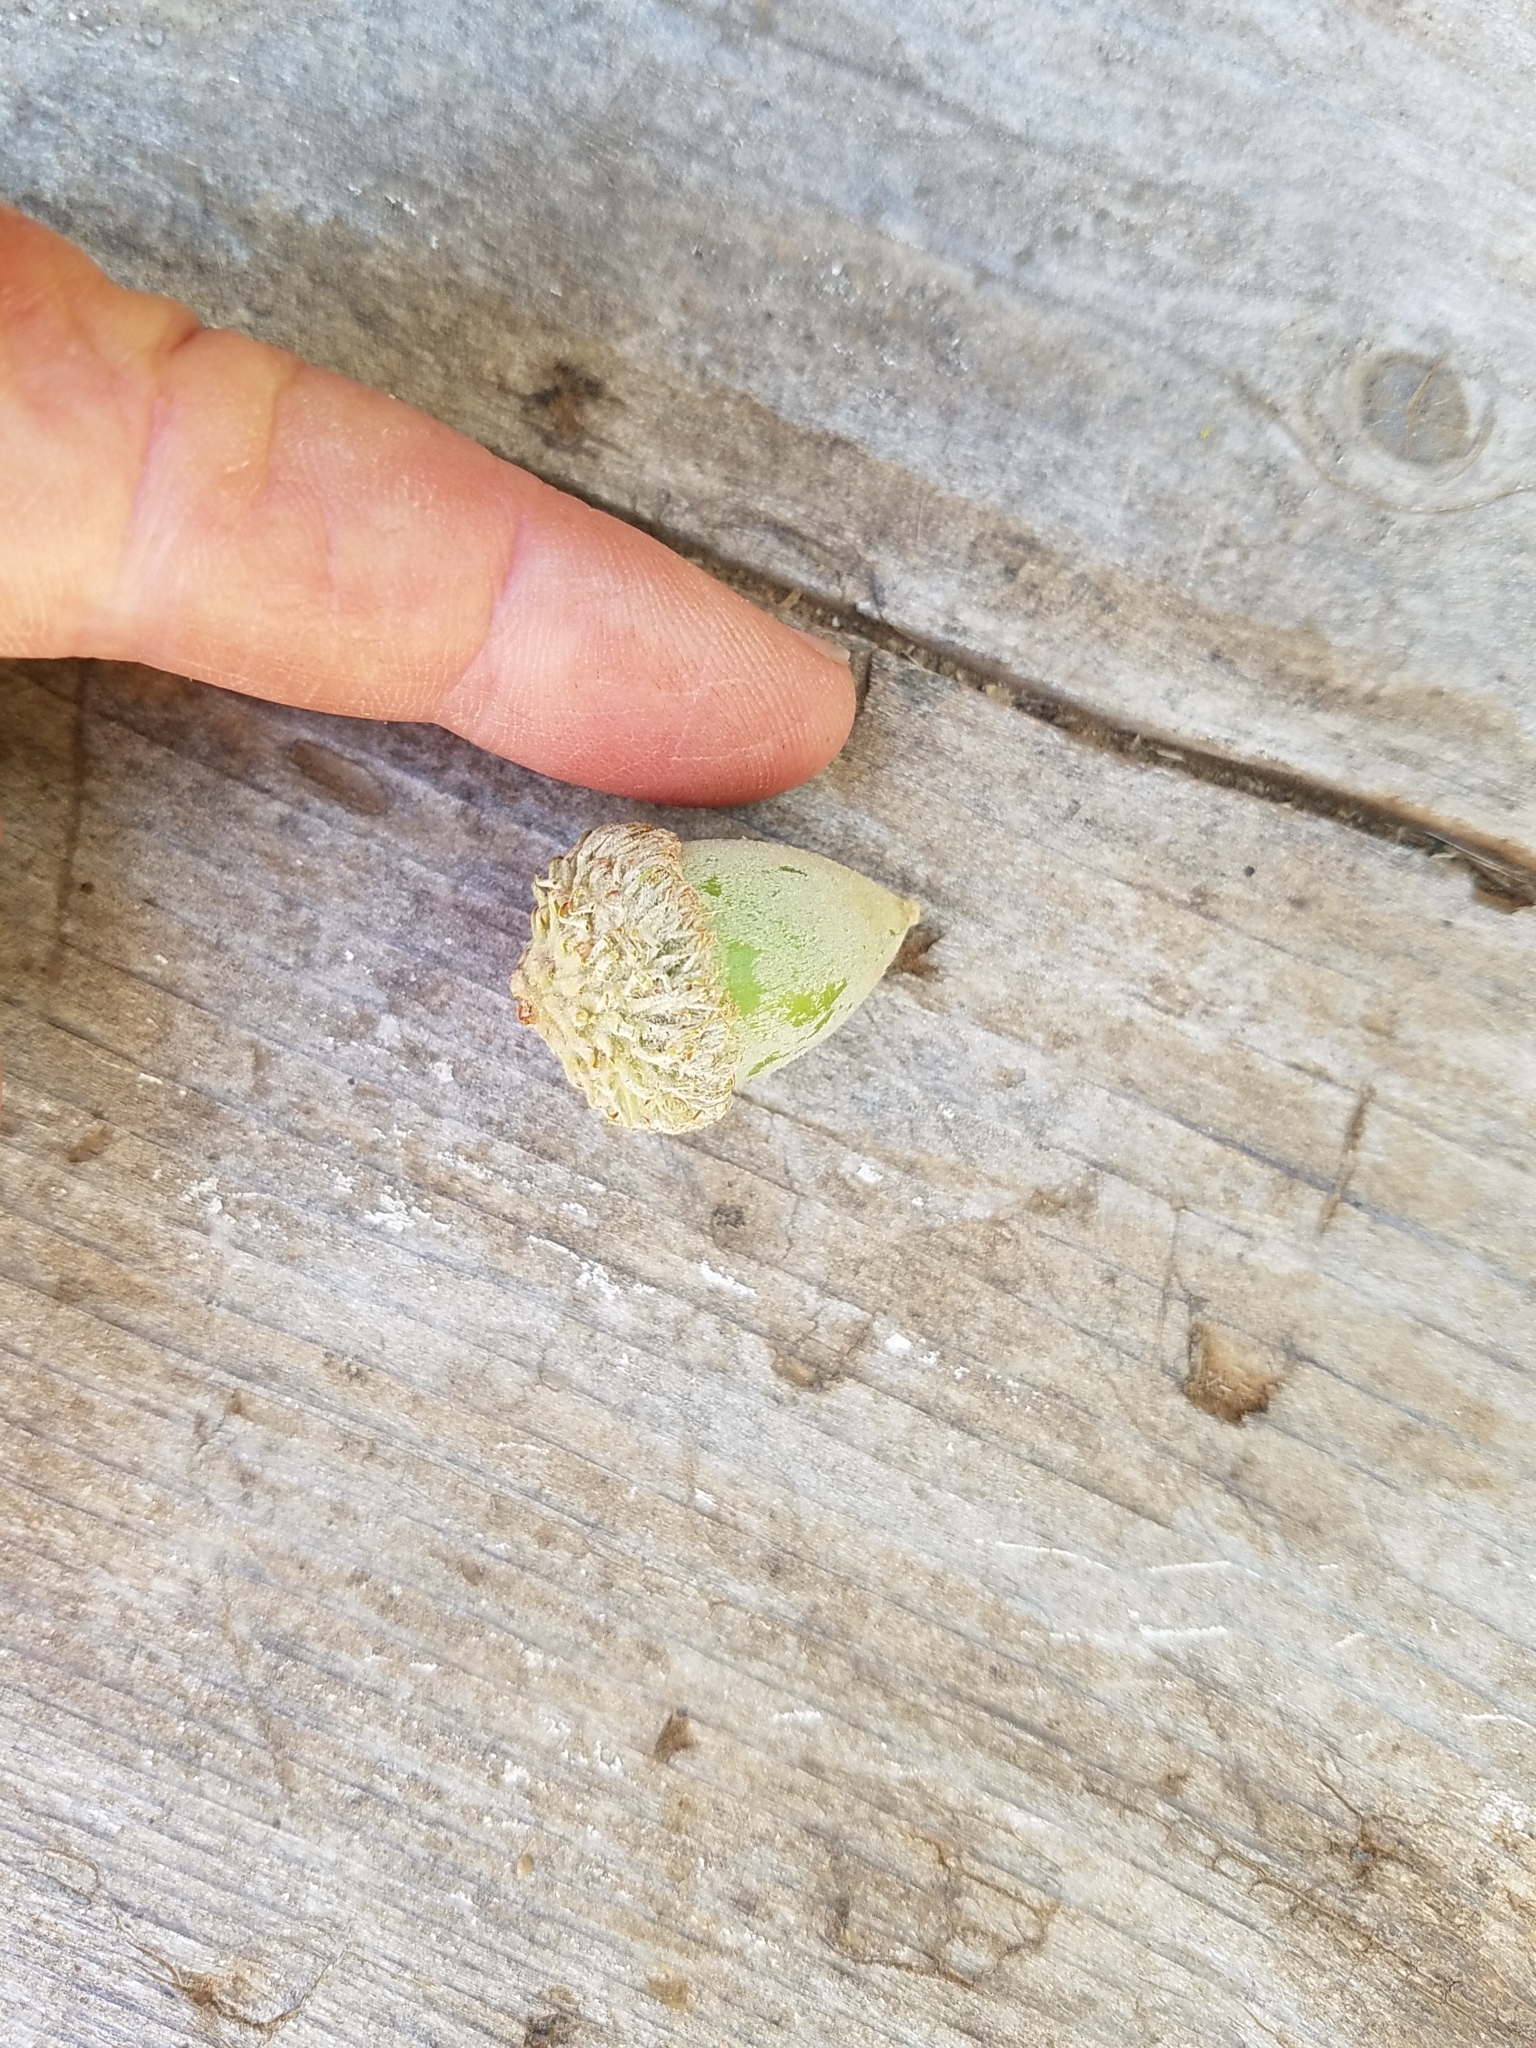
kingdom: Plantae
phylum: Tracheophyta
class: Magnoliopsida
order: Fagales
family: Fagaceae
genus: Notholithocarpus
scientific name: Notholithocarpus densiflorus
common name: Tan bark oak
